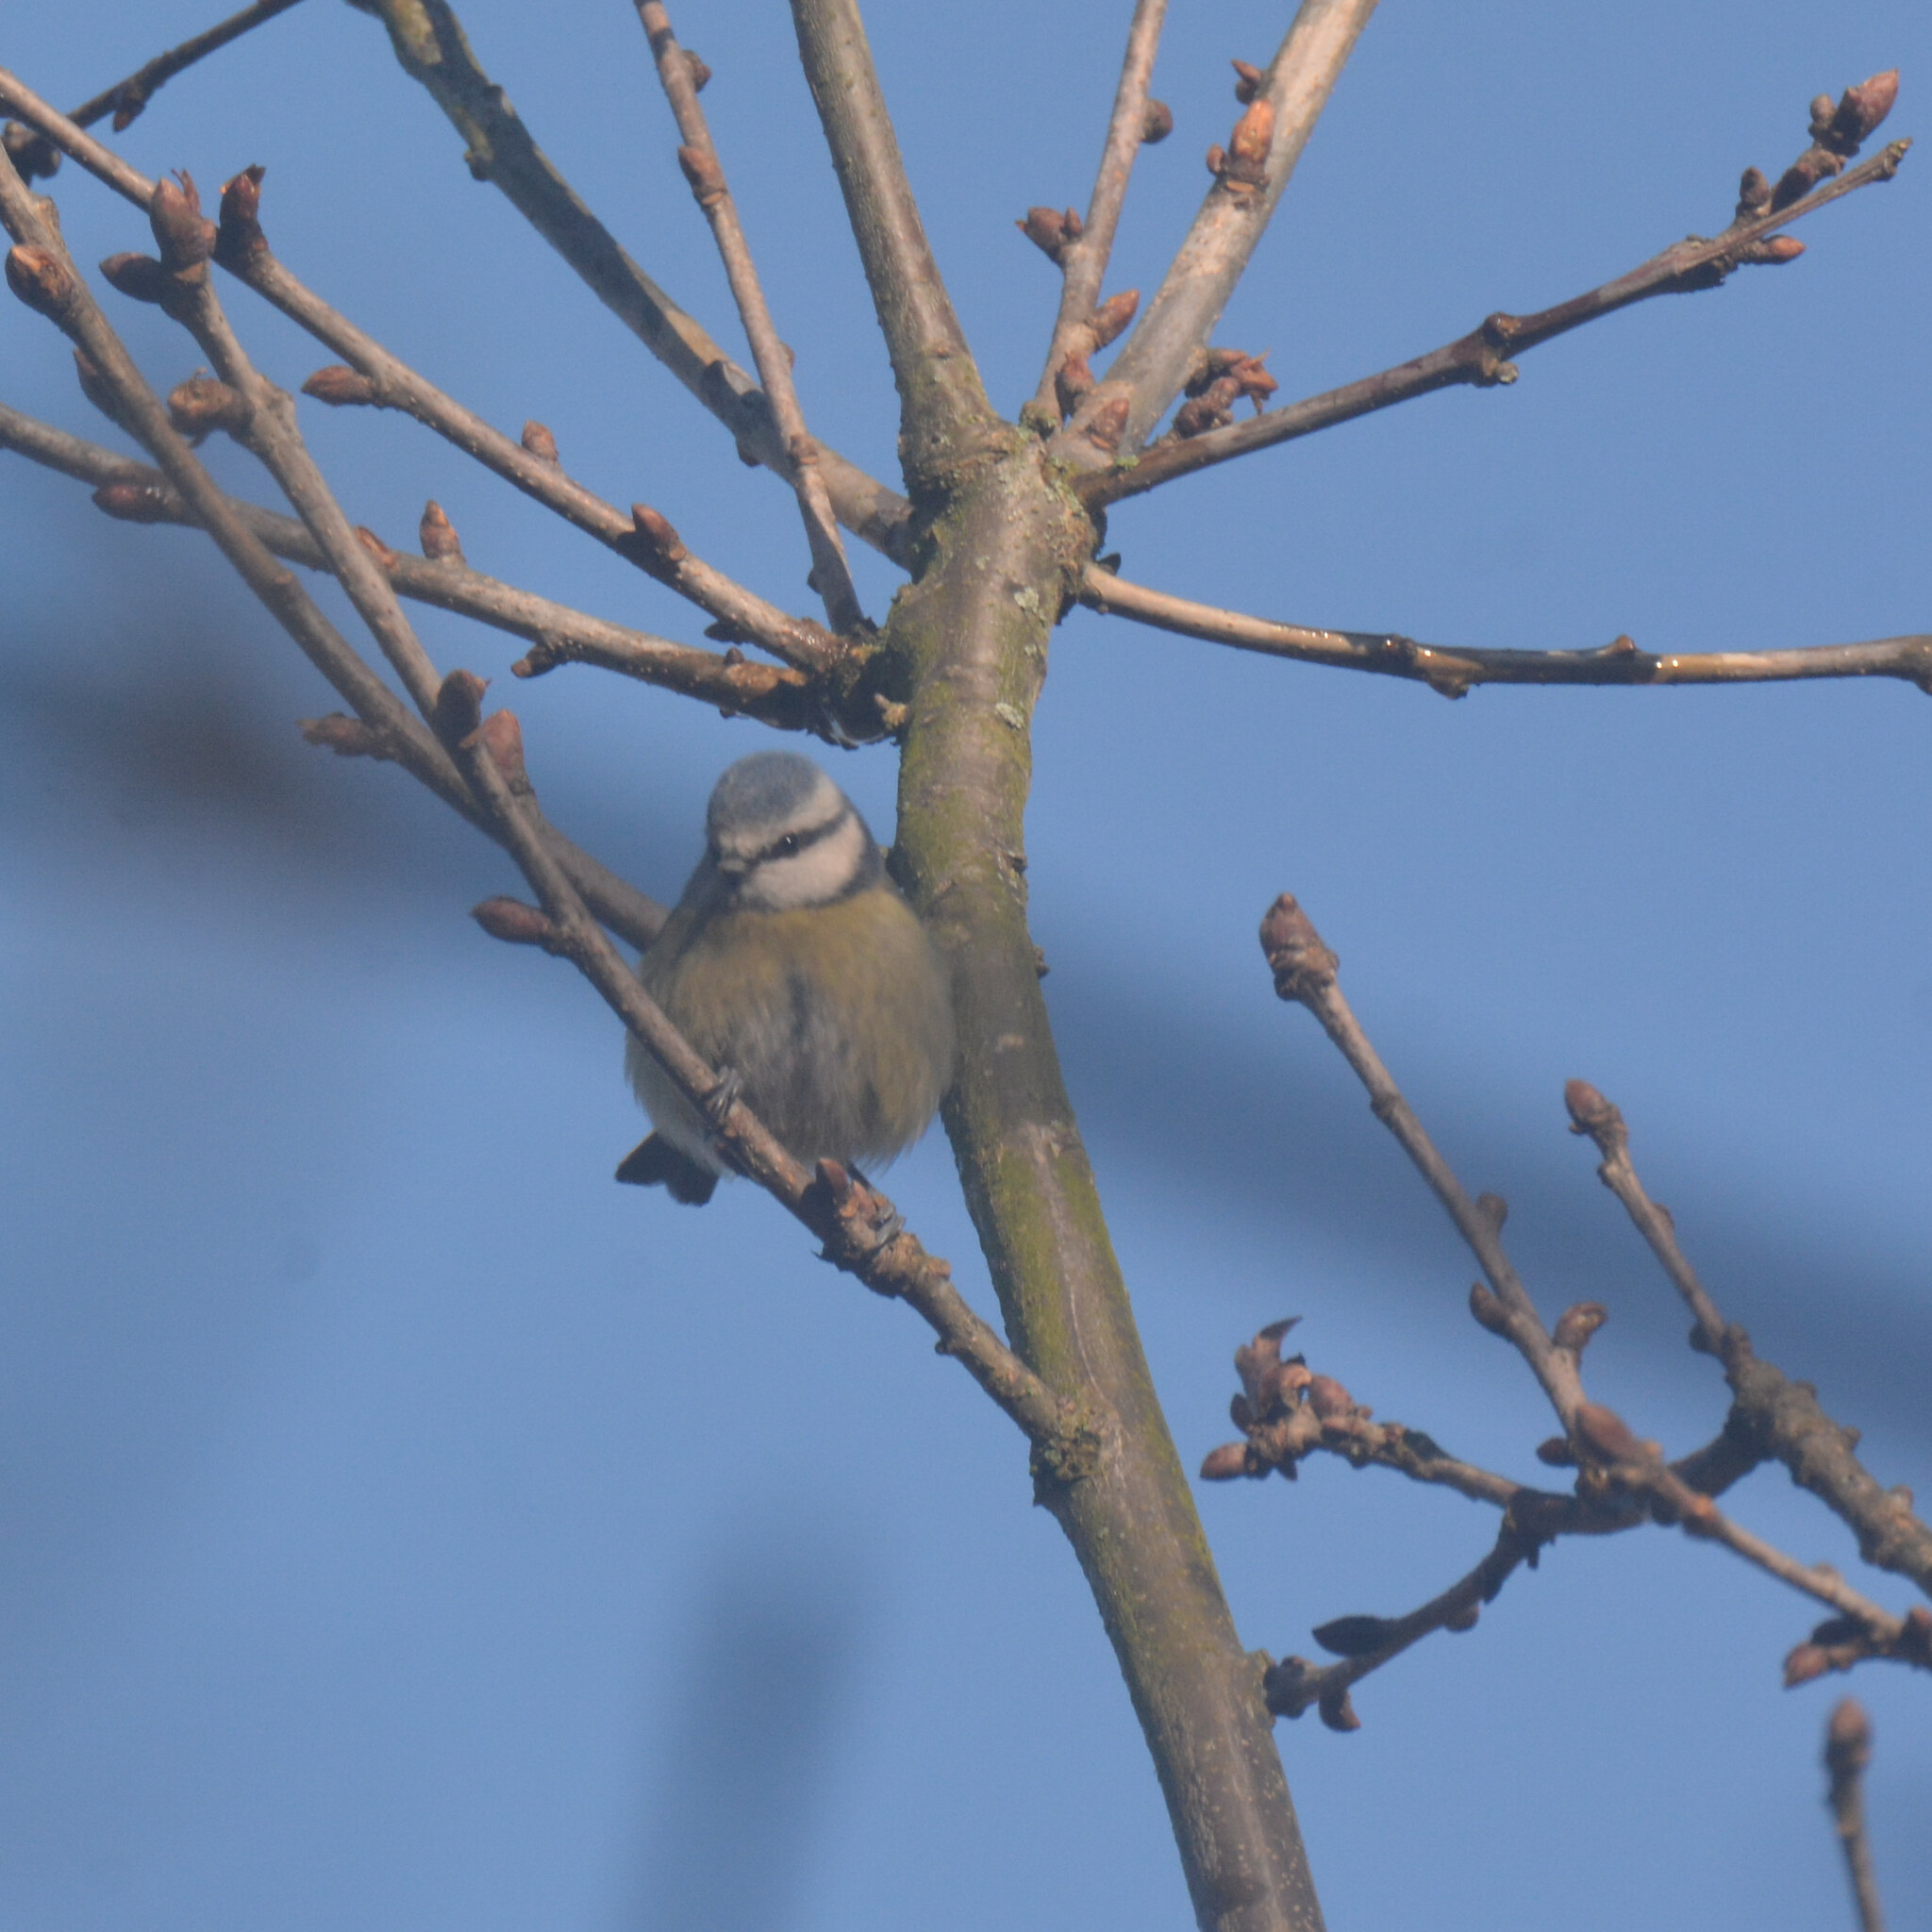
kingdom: Animalia
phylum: Chordata
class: Aves
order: Passeriformes
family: Paridae
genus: Cyanistes
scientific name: Cyanistes caeruleus
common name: Eurasian blue tit
